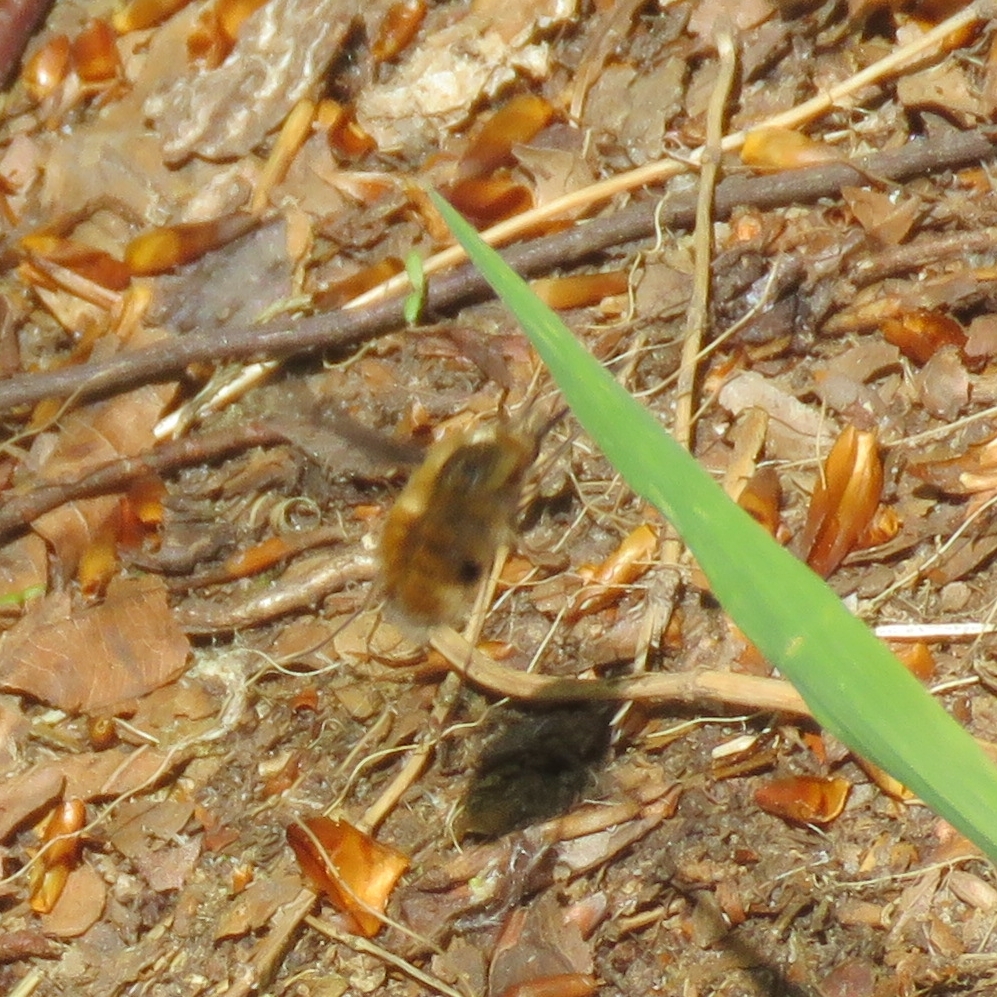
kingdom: Animalia
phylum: Arthropoda
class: Insecta
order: Diptera
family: Bombyliidae
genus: Bombylius
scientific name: Bombylius major
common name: Bee fly
